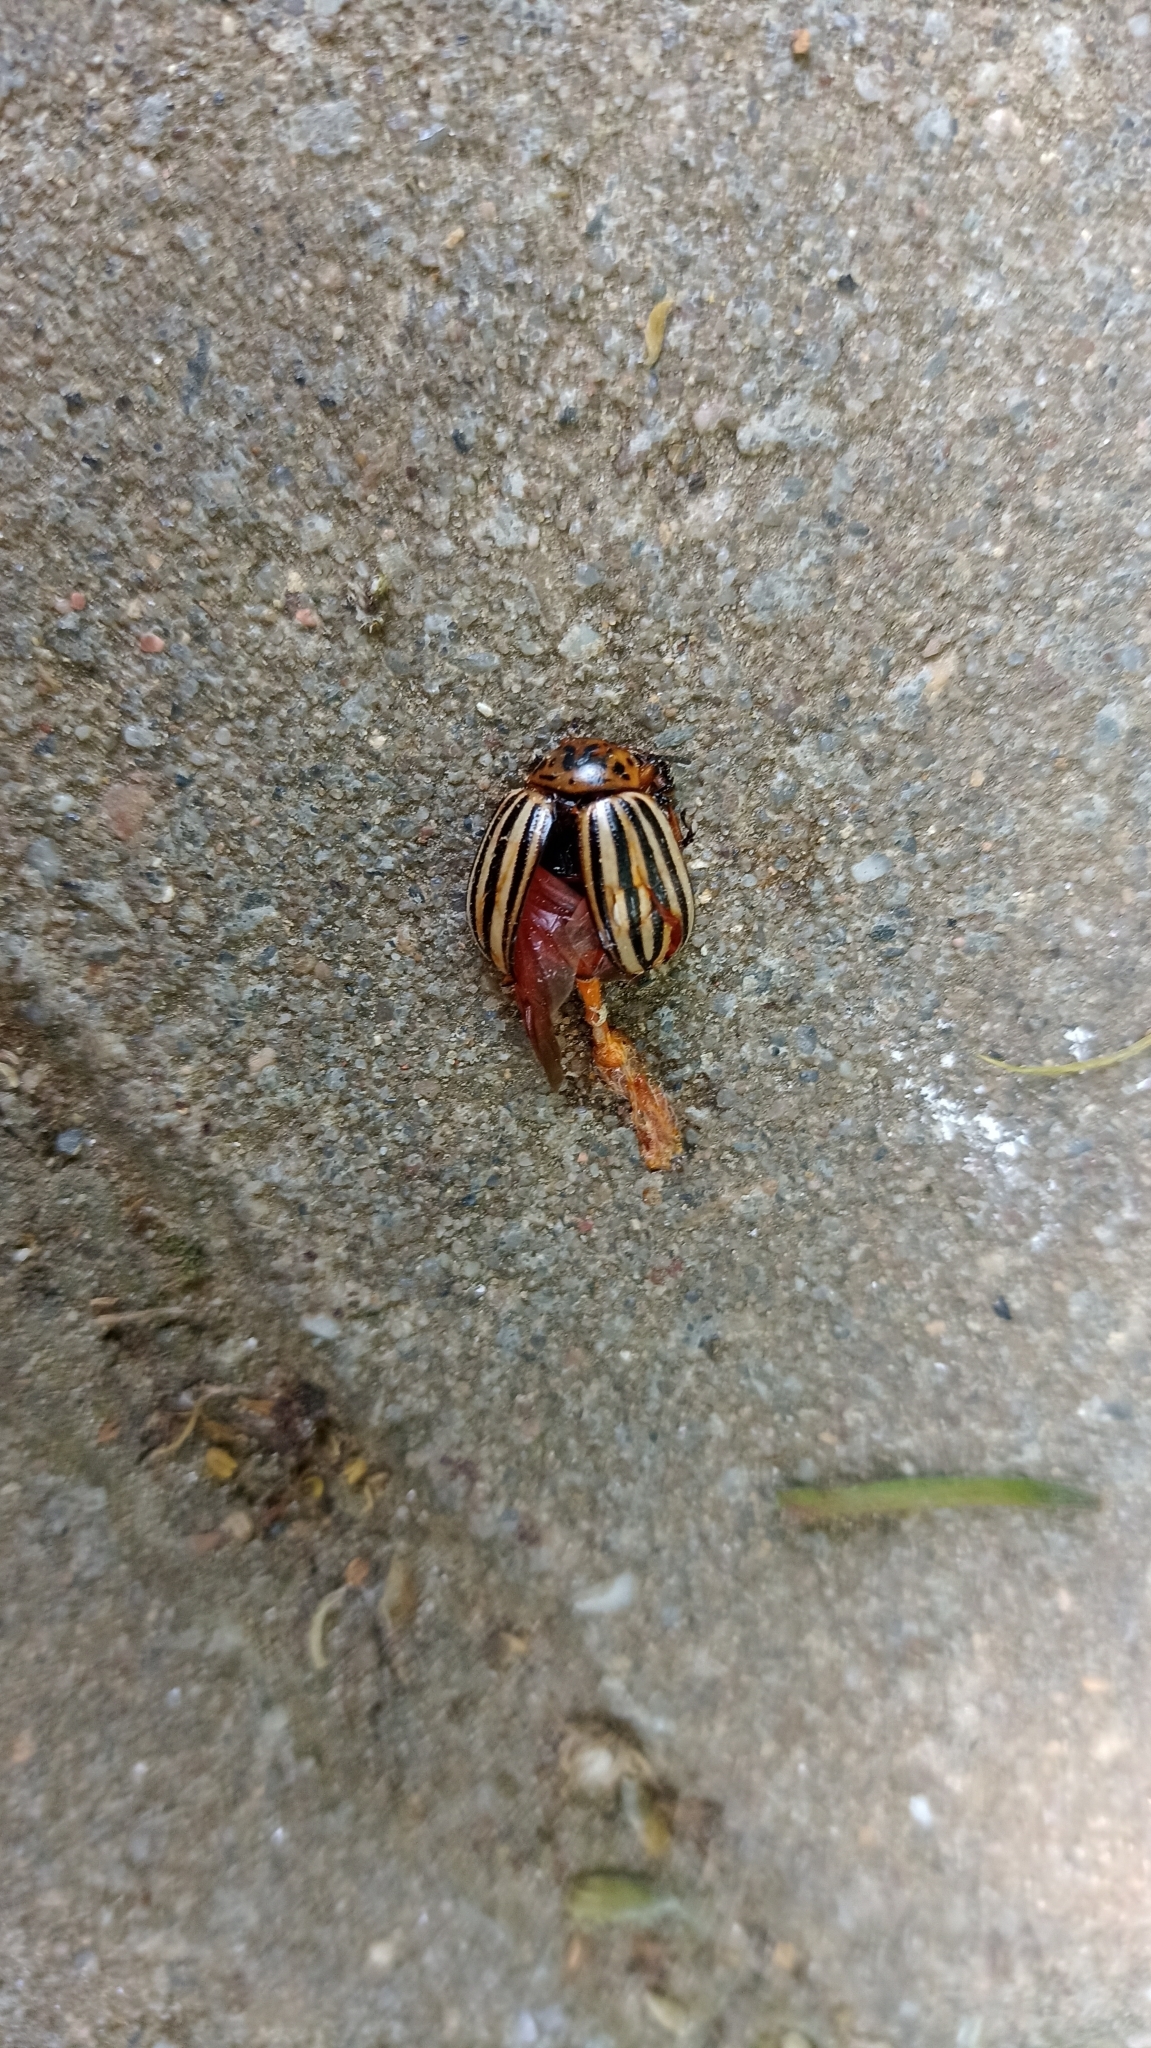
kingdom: Animalia
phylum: Arthropoda
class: Insecta
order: Coleoptera
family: Chrysomelidae
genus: Leptinotarsa
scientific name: Leptinotarsa decemlineata
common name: Colorado potato beetle
